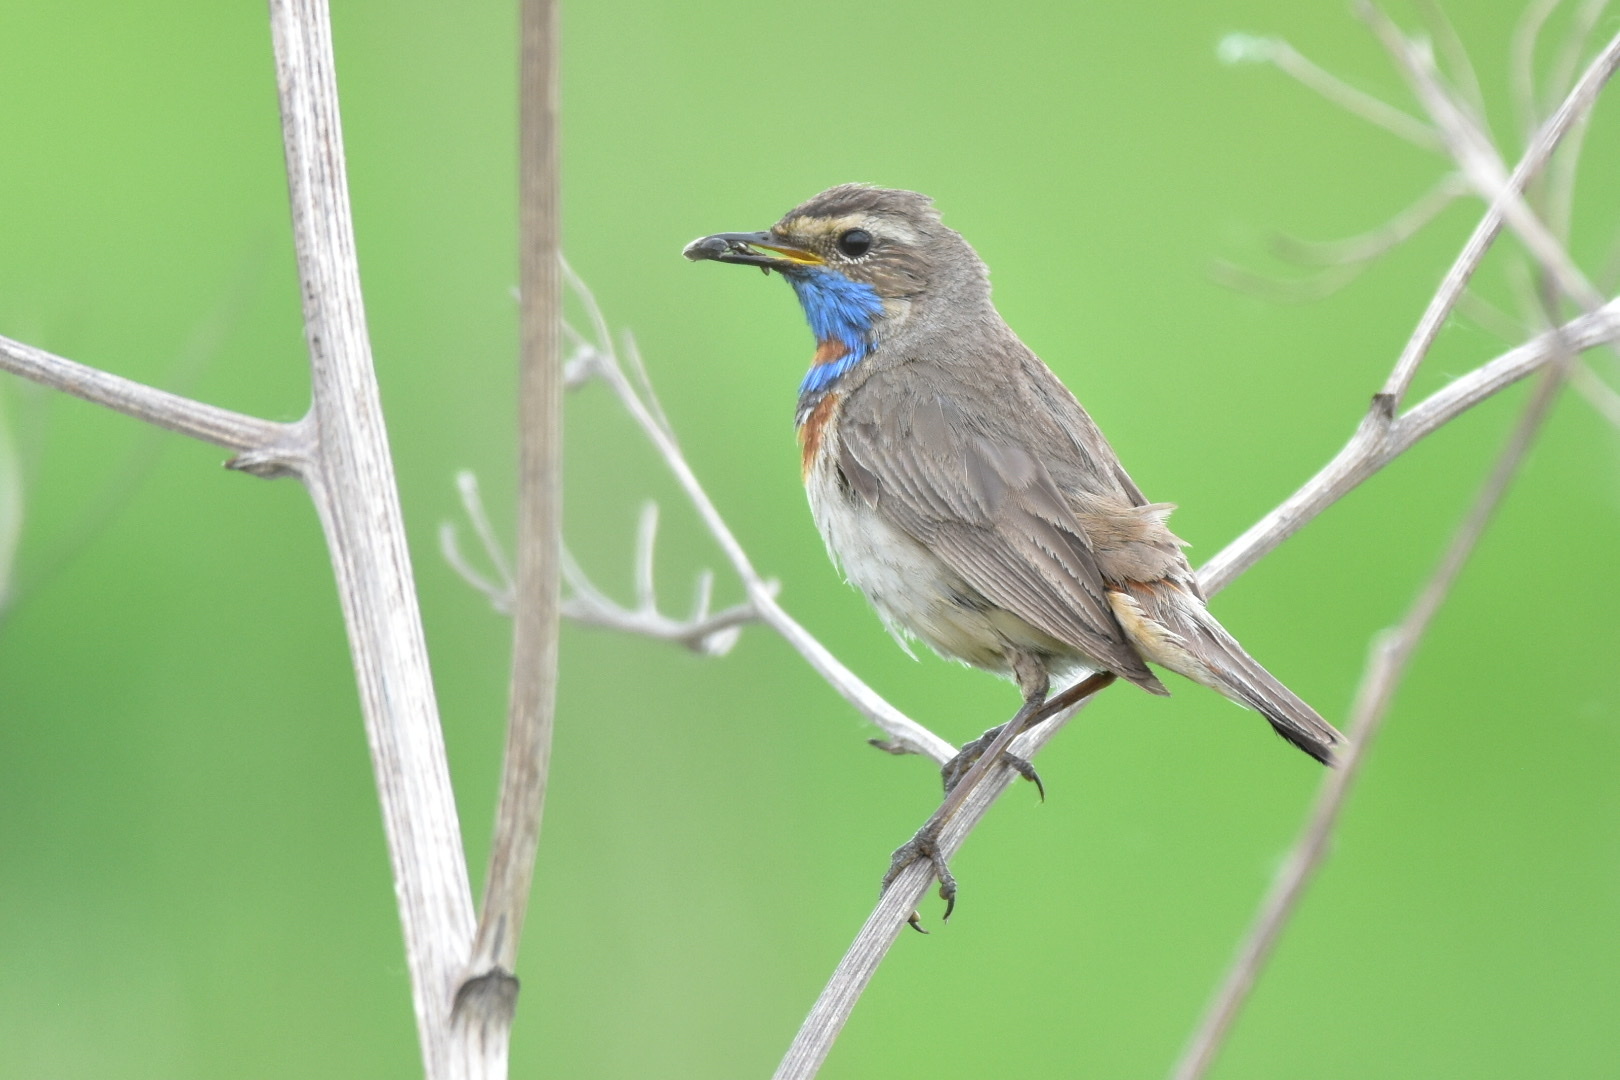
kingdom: Animalia
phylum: Chordata
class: Aves
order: Passeriformes
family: Muscicapidae
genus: Luscinia
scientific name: Luscinia svecica
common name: Bluethroat
